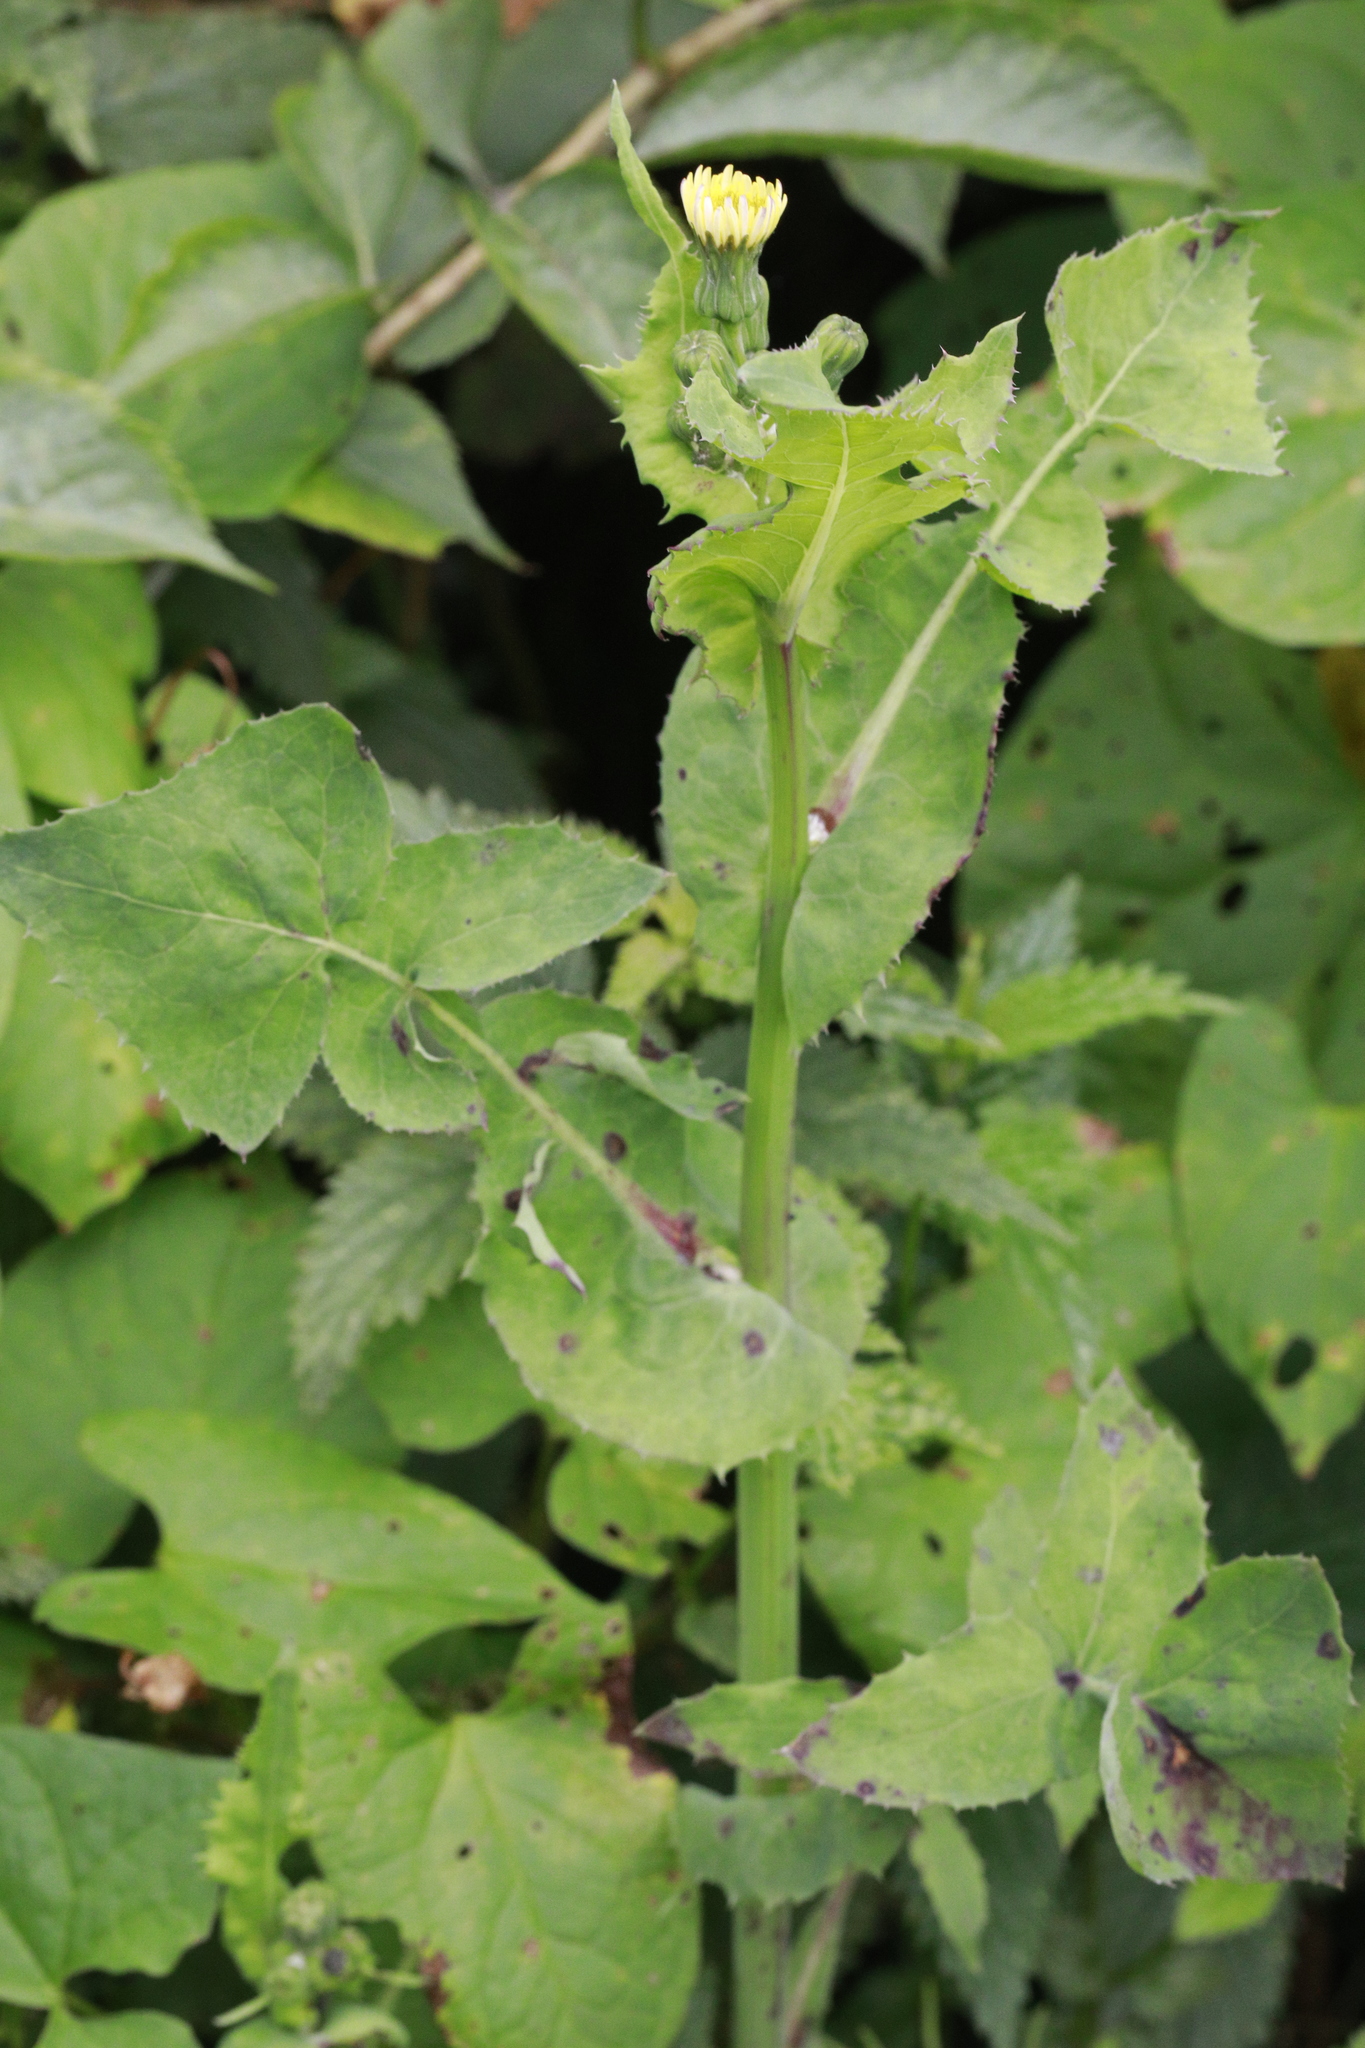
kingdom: Plantae
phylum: Tracheophyta
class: Magnoliopsida
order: Asterales
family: Asteraceae
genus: Sonchus
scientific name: Sonchus oleraceus
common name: Common sowthistle
